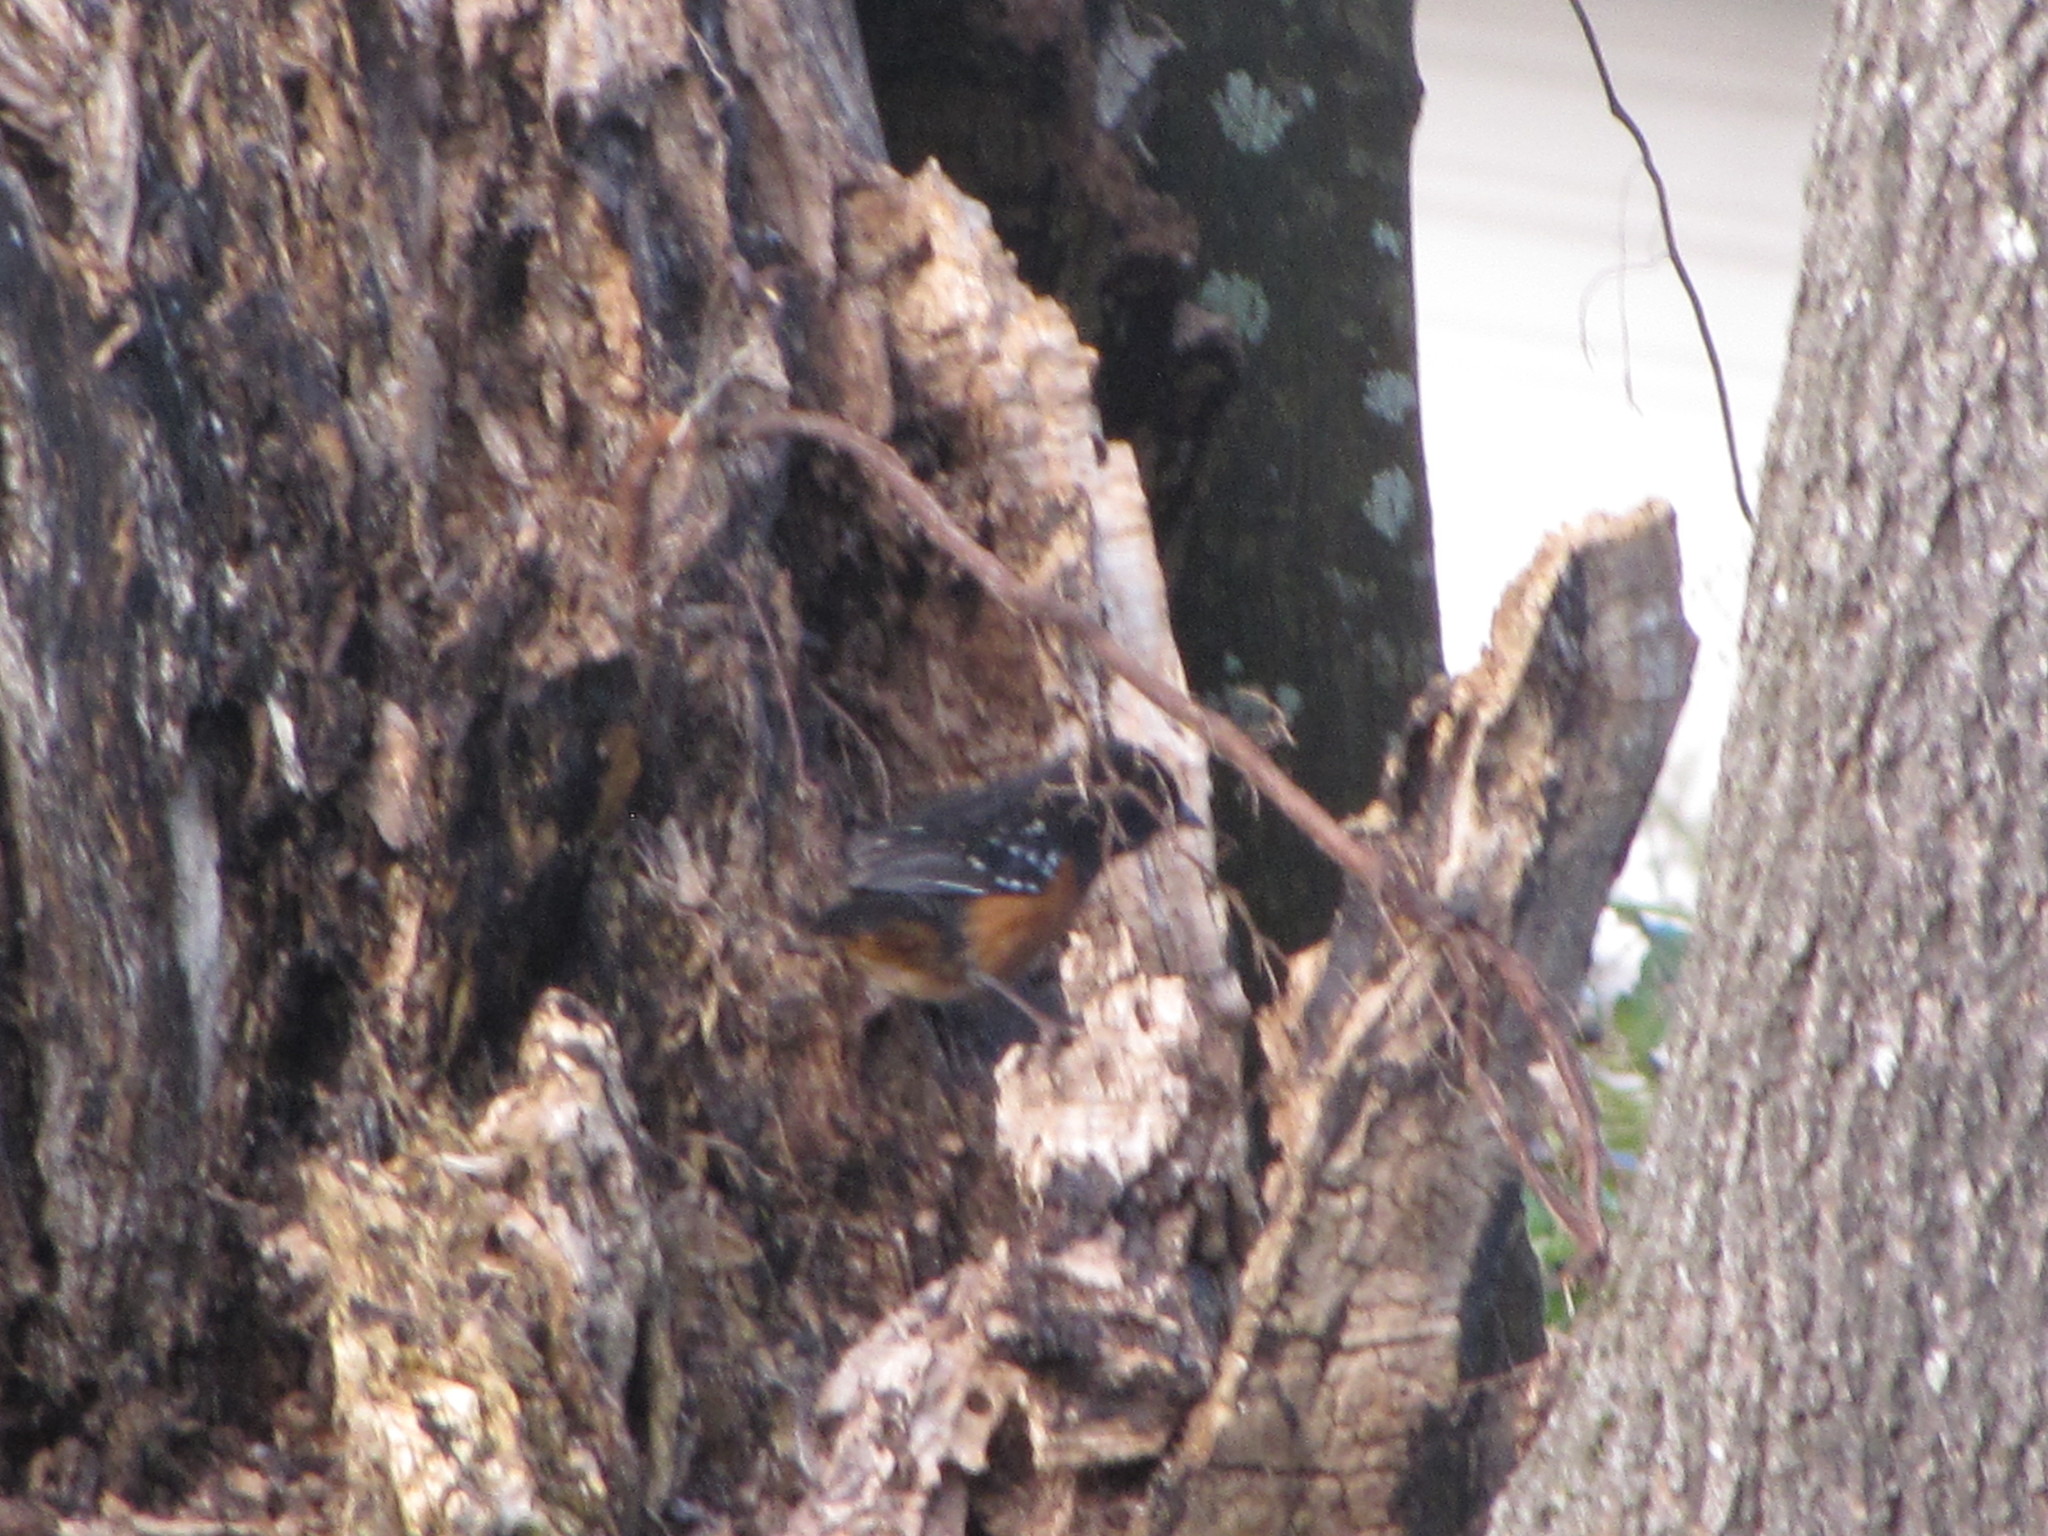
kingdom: Animalia
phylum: Chordata
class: Aves
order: Passeriformes
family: Passerellidae
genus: Pipilo
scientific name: Pipilo maculatus
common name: Spotted towhee
